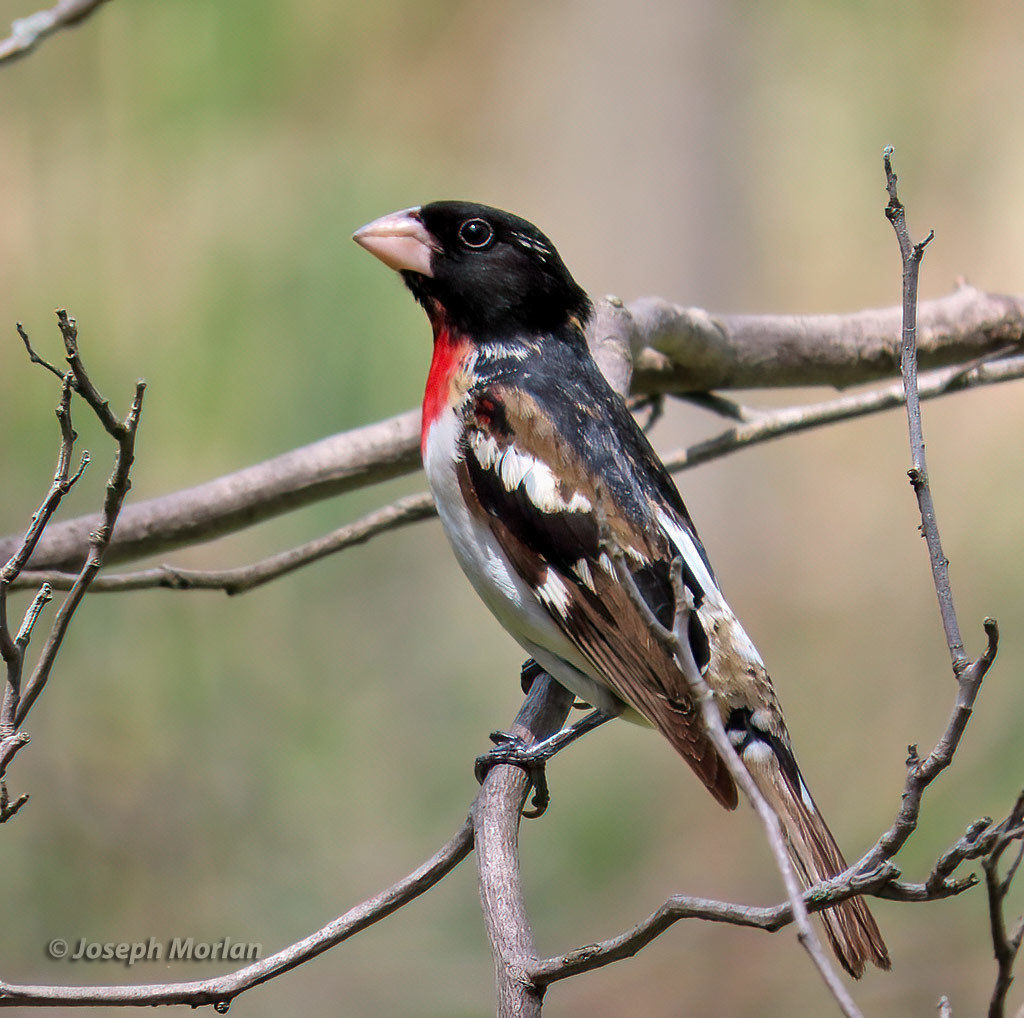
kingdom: Animalia
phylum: Chordata
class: Aves
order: Passeriformes
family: Cardinalidae
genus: Pheucticus
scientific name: Pheucticus ludovicianus
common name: Rose-breasted grosbeak
